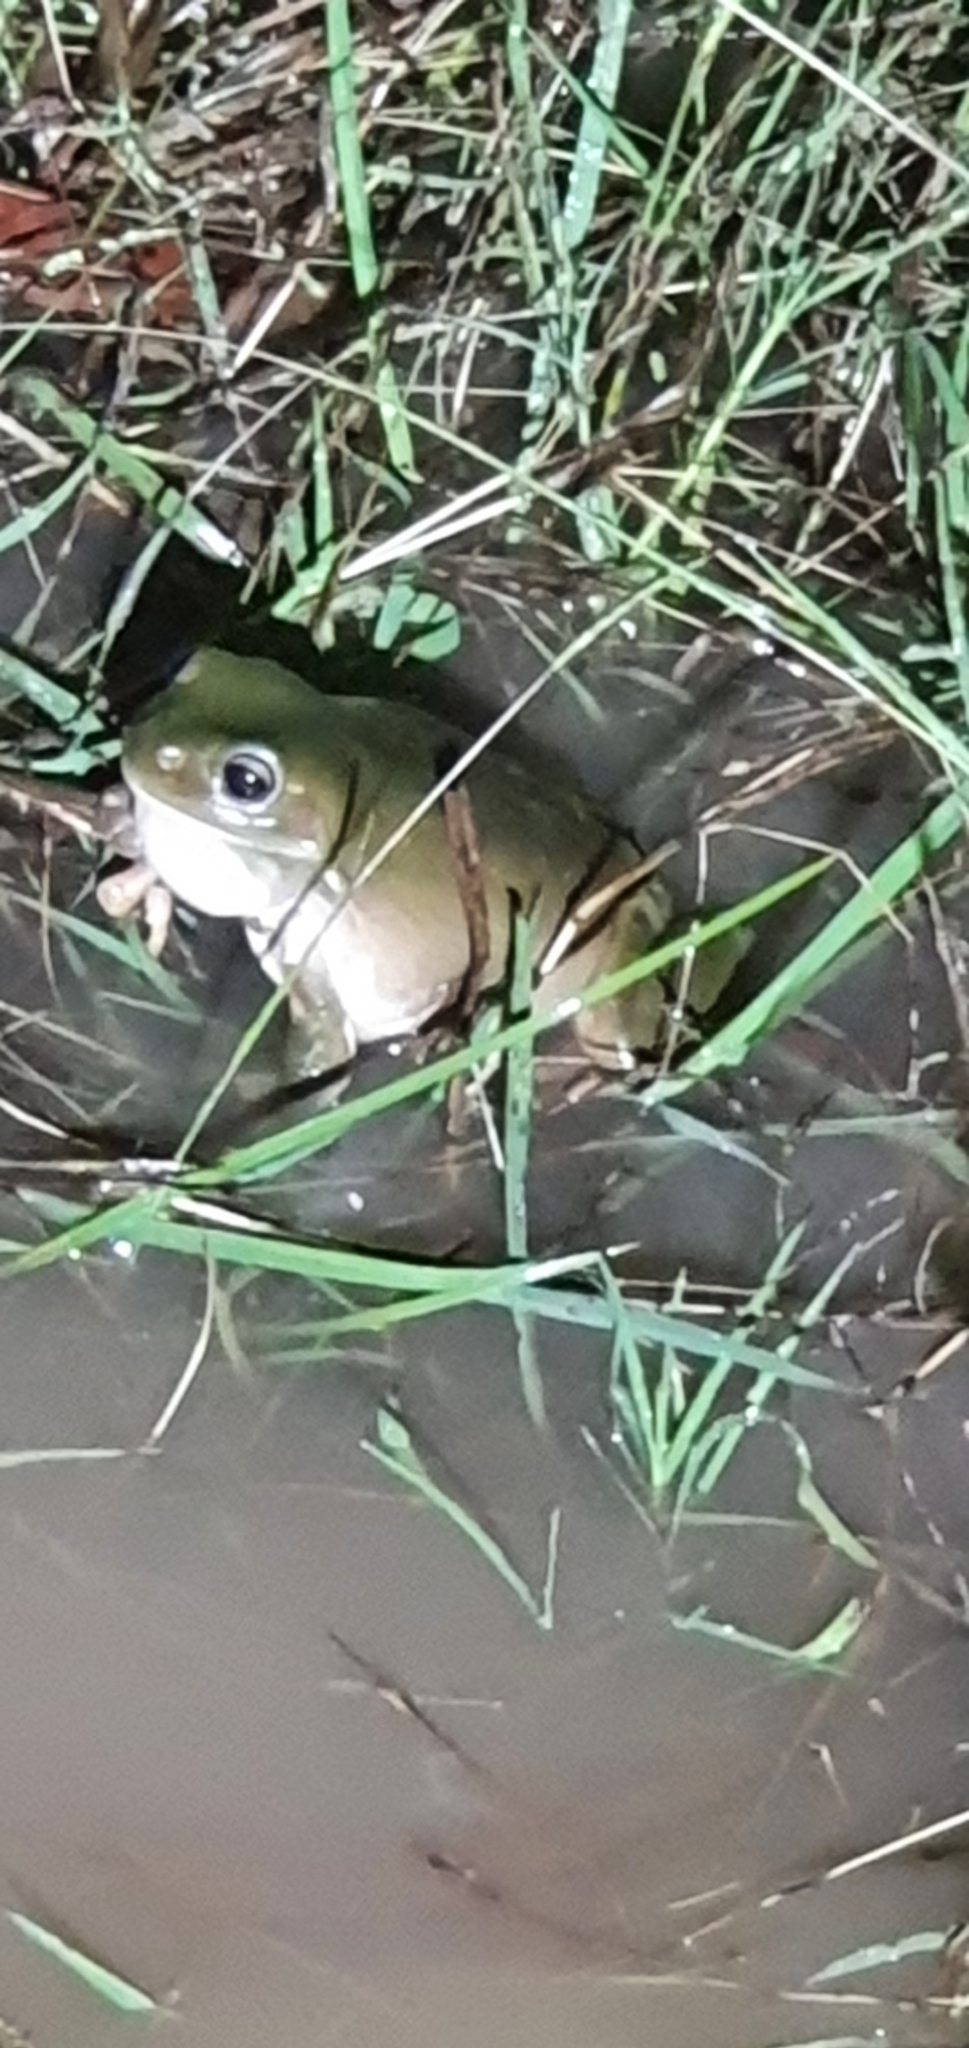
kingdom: Animalia
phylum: Chordata
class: Amphibia
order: Anura
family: Pelodryadidae
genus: Ranoidea
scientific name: Ranoidea caerulea
